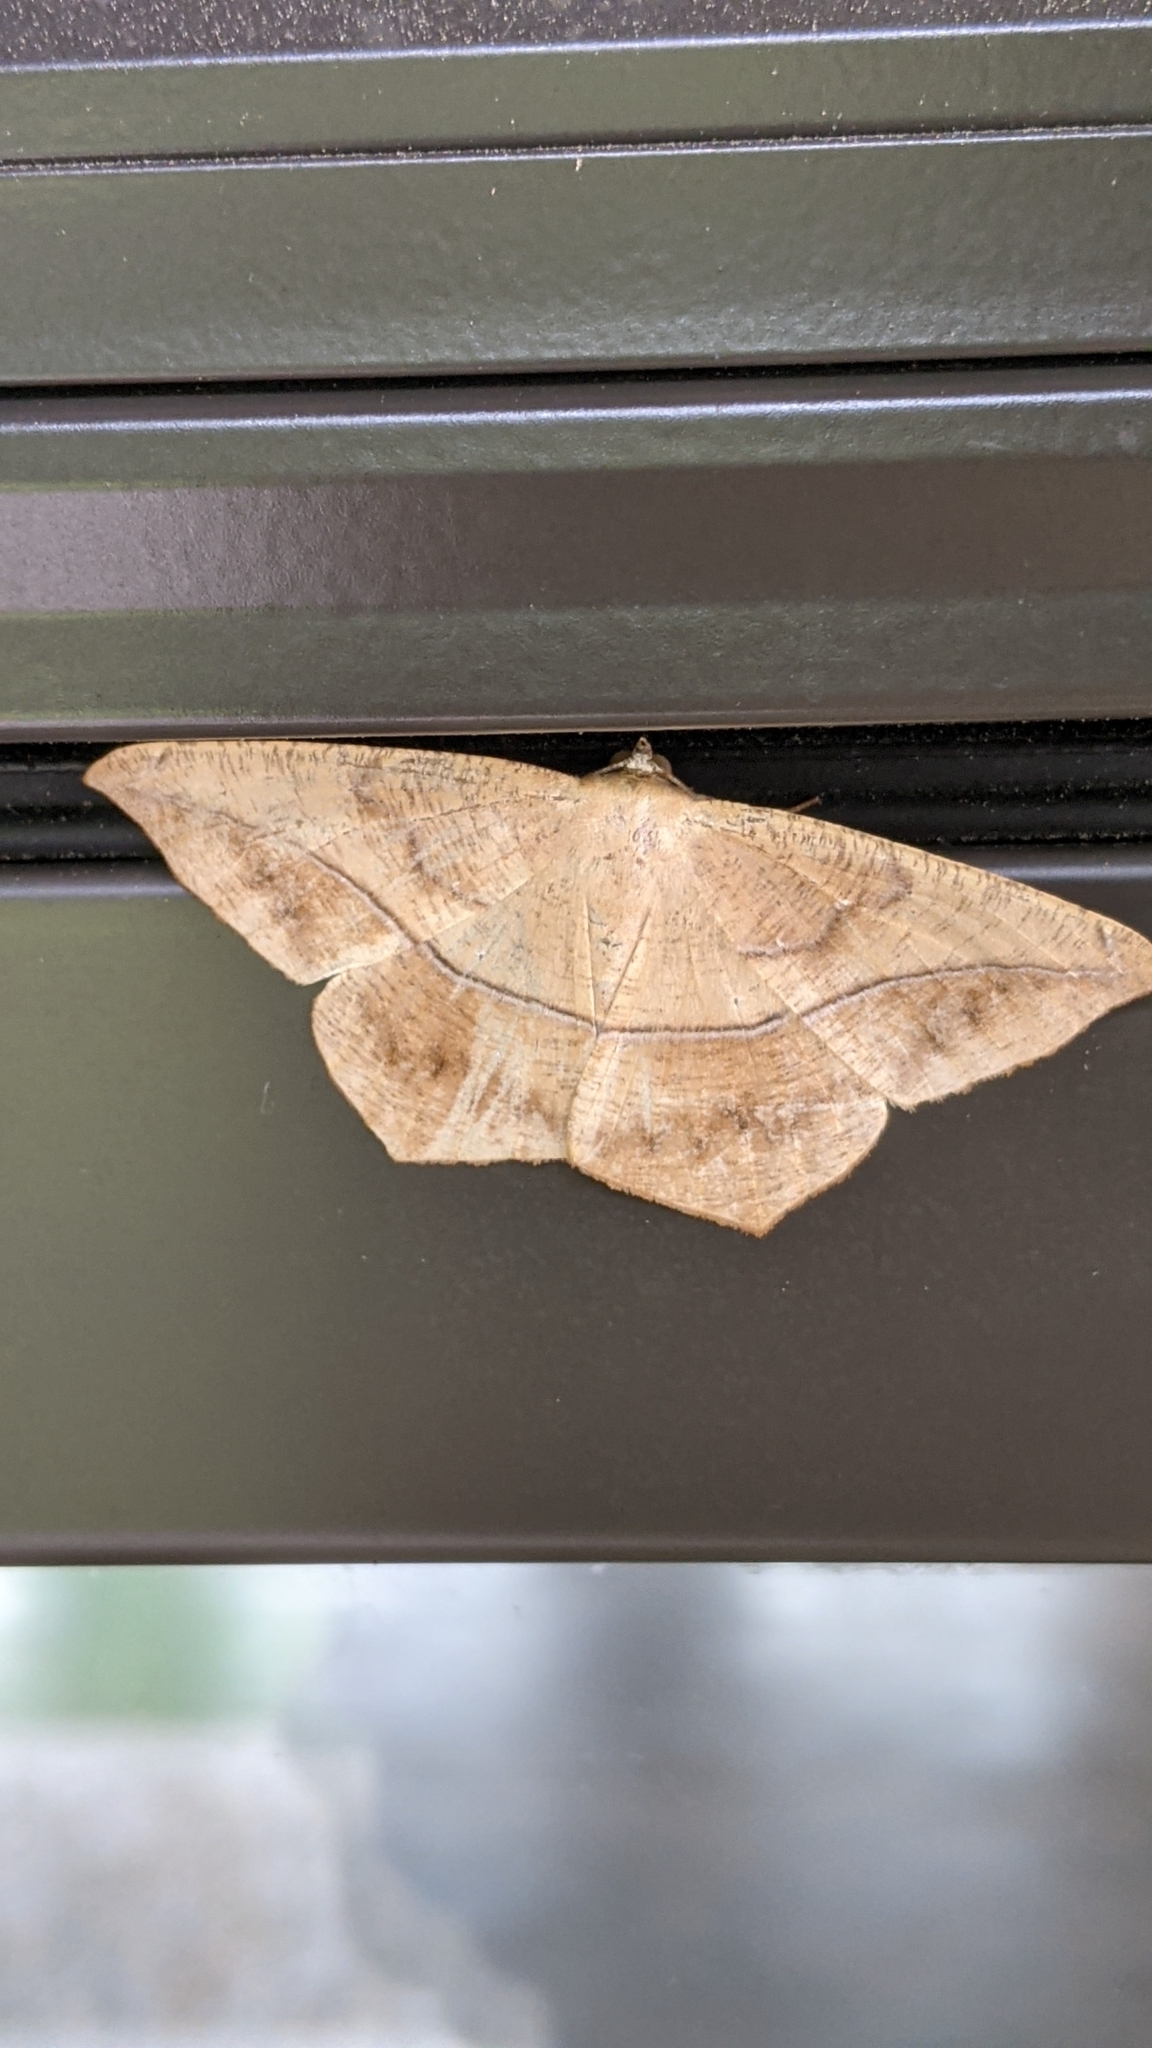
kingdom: Animalia
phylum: Arthropoda
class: Insecta
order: Lepidoptera
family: Geometridae
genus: Prochoerodes
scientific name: Prochoerodes lineola
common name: Large maple spanworm
